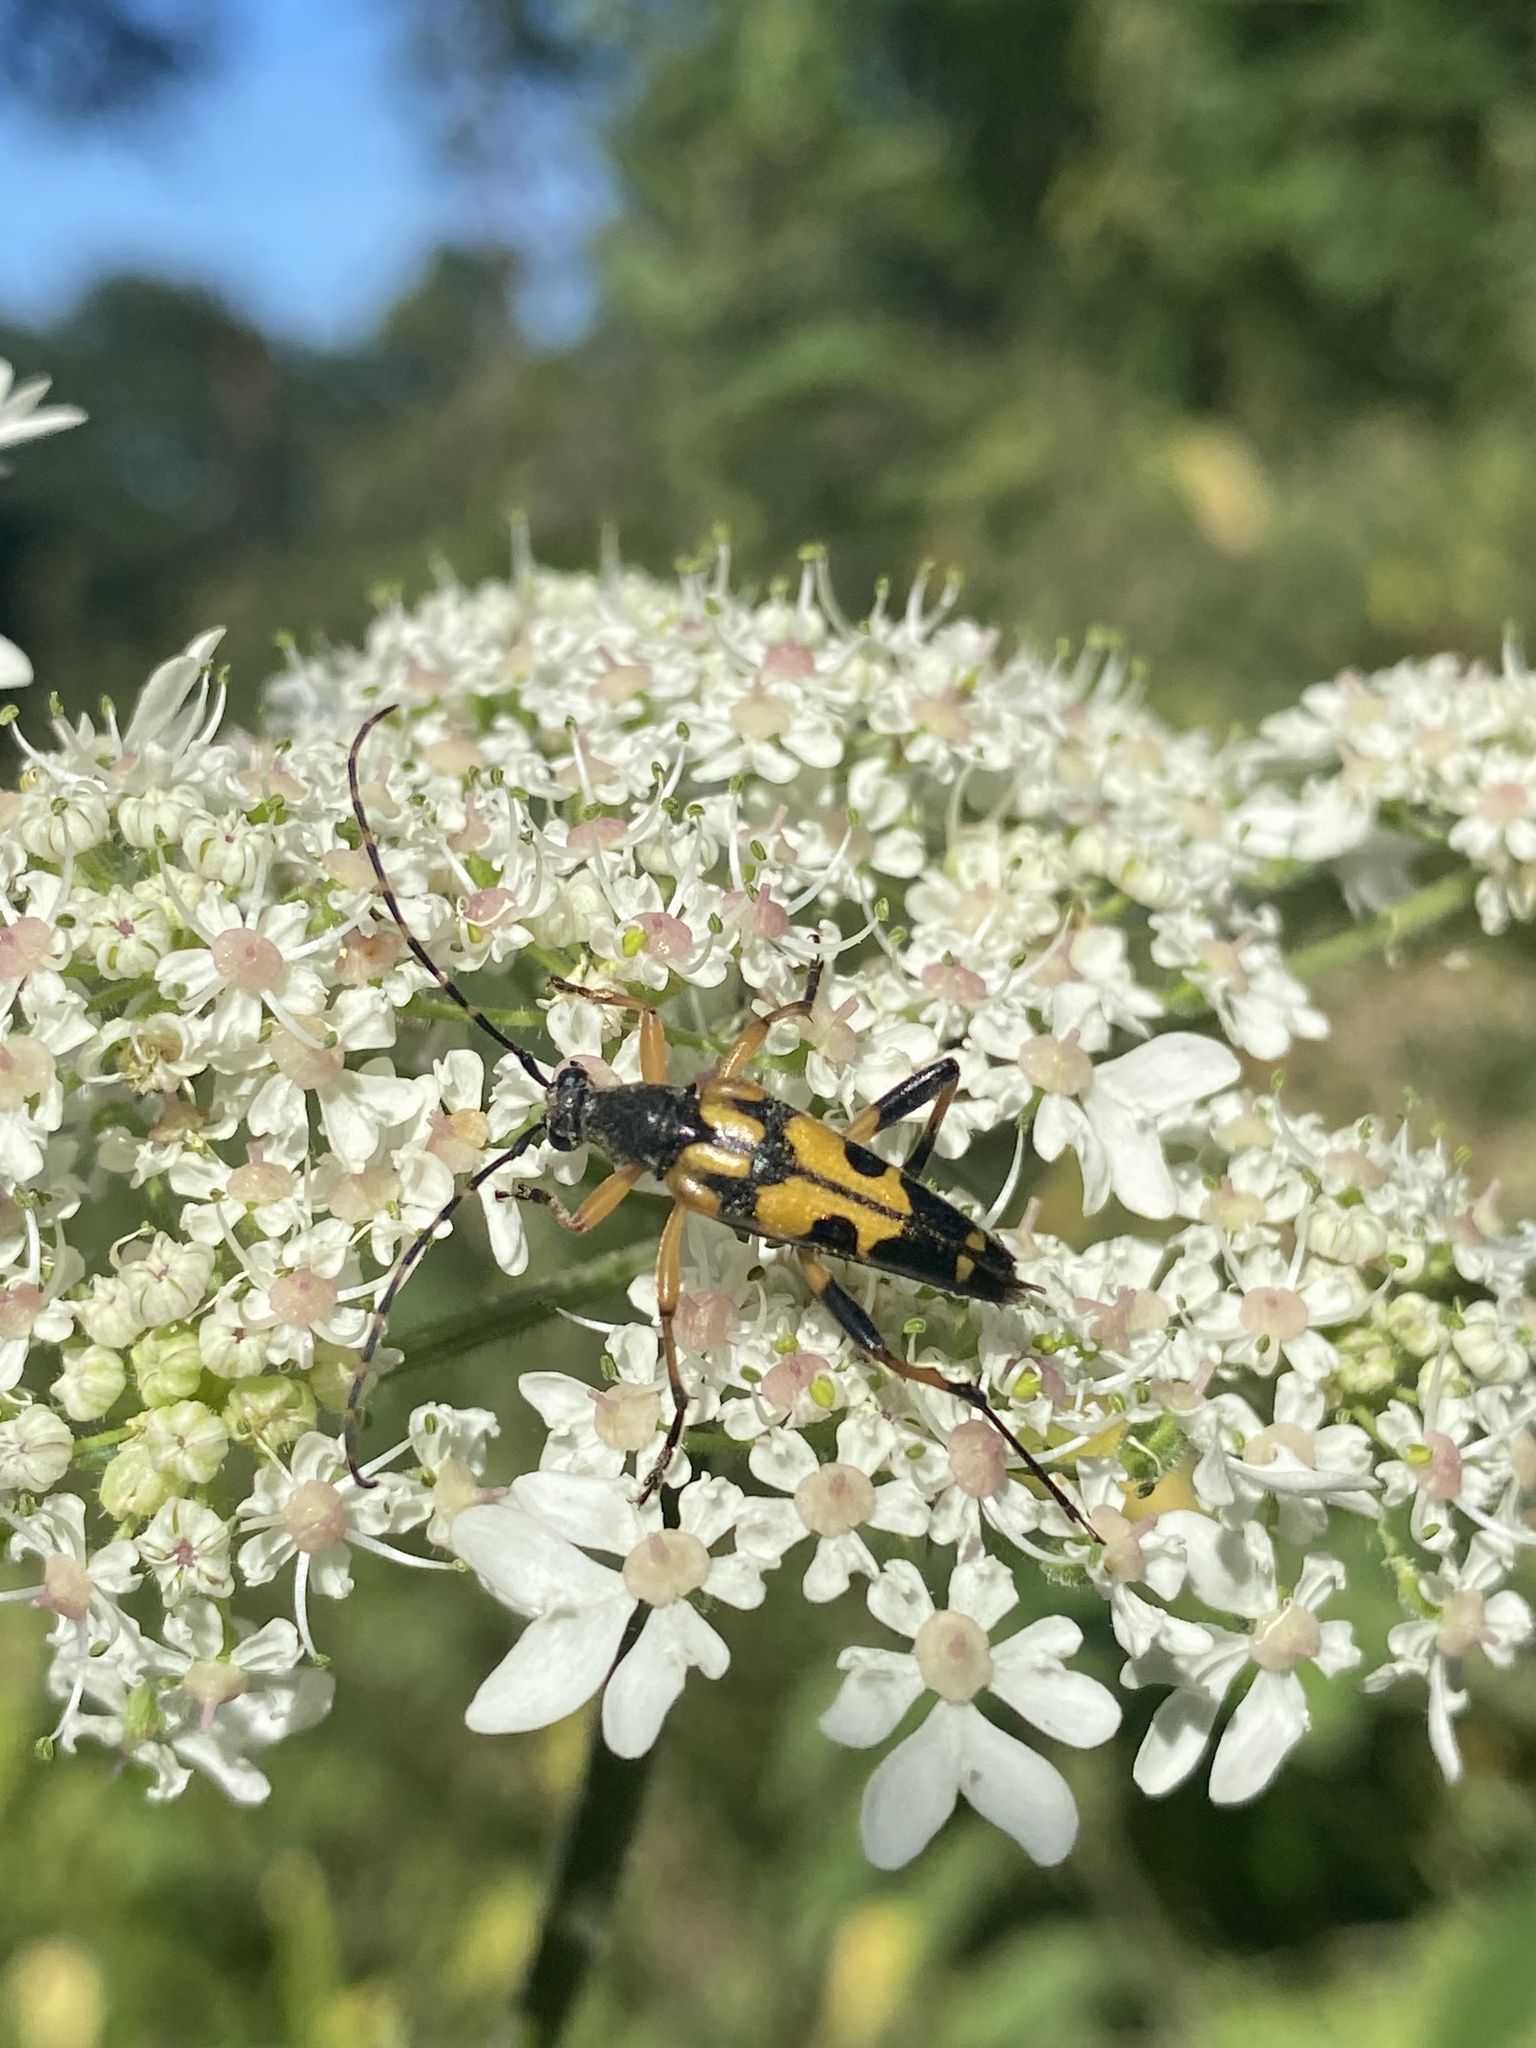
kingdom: Animalia
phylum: Arthropoda
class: Insecta
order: Coleoptera
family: Cerambycidae
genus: Rutpela
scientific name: Rutpela maculata
